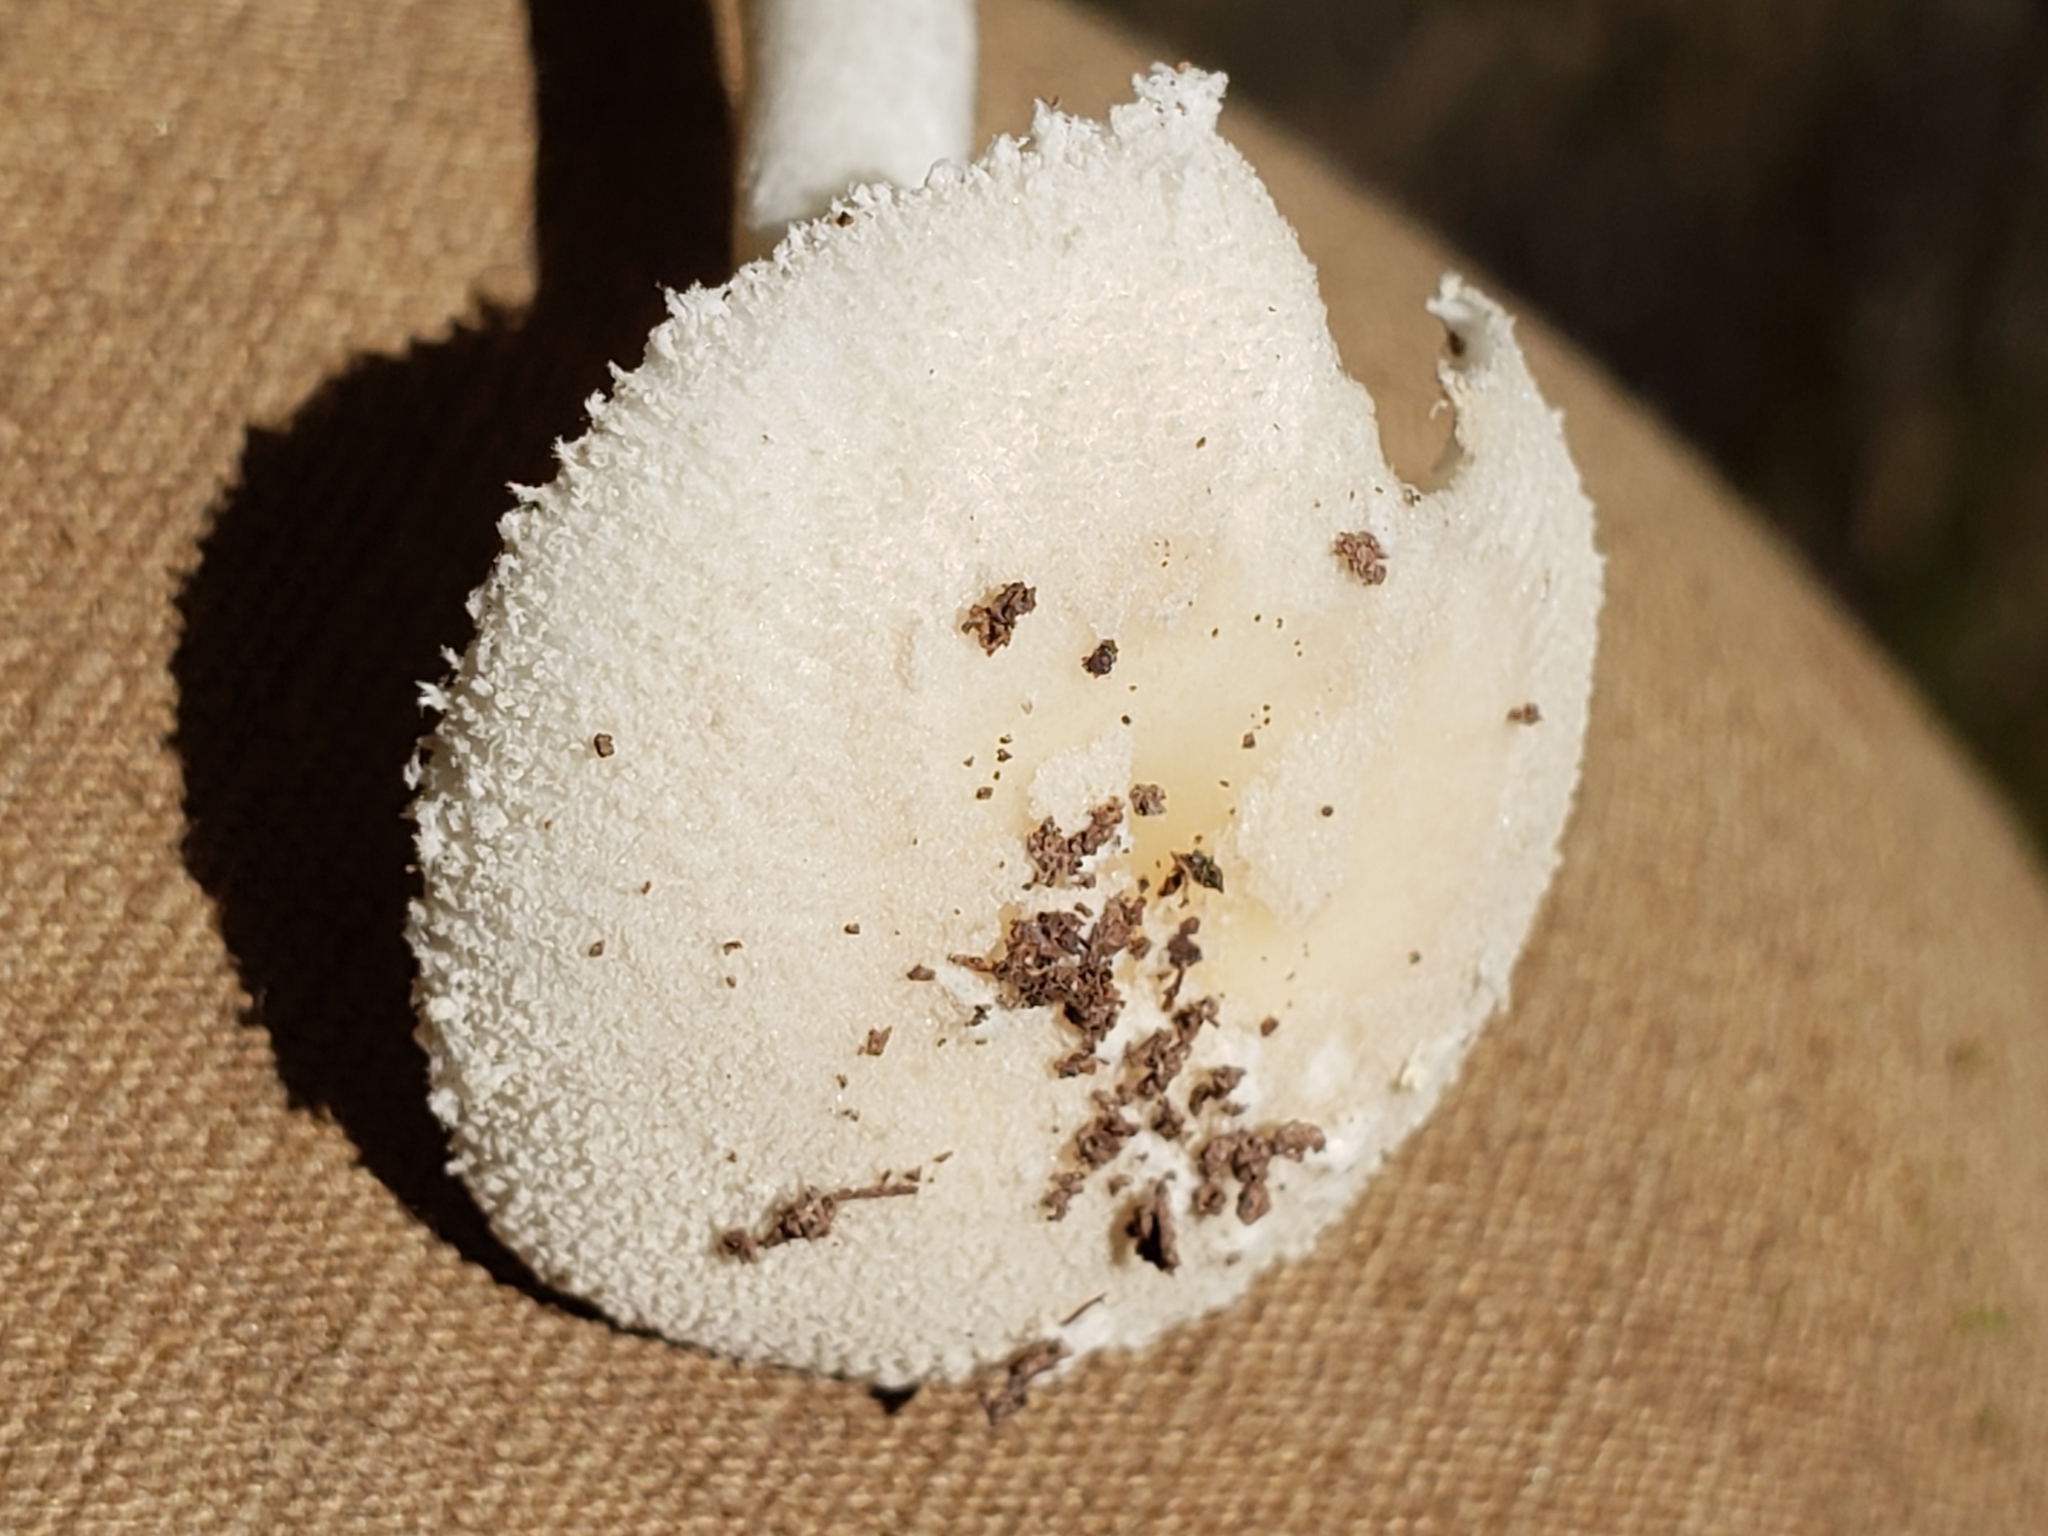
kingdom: Fungi
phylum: Basidiomycota
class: Agaricomycetes
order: Agaricales
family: Amanitaceae
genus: Amanita
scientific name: Amanita farinosa
